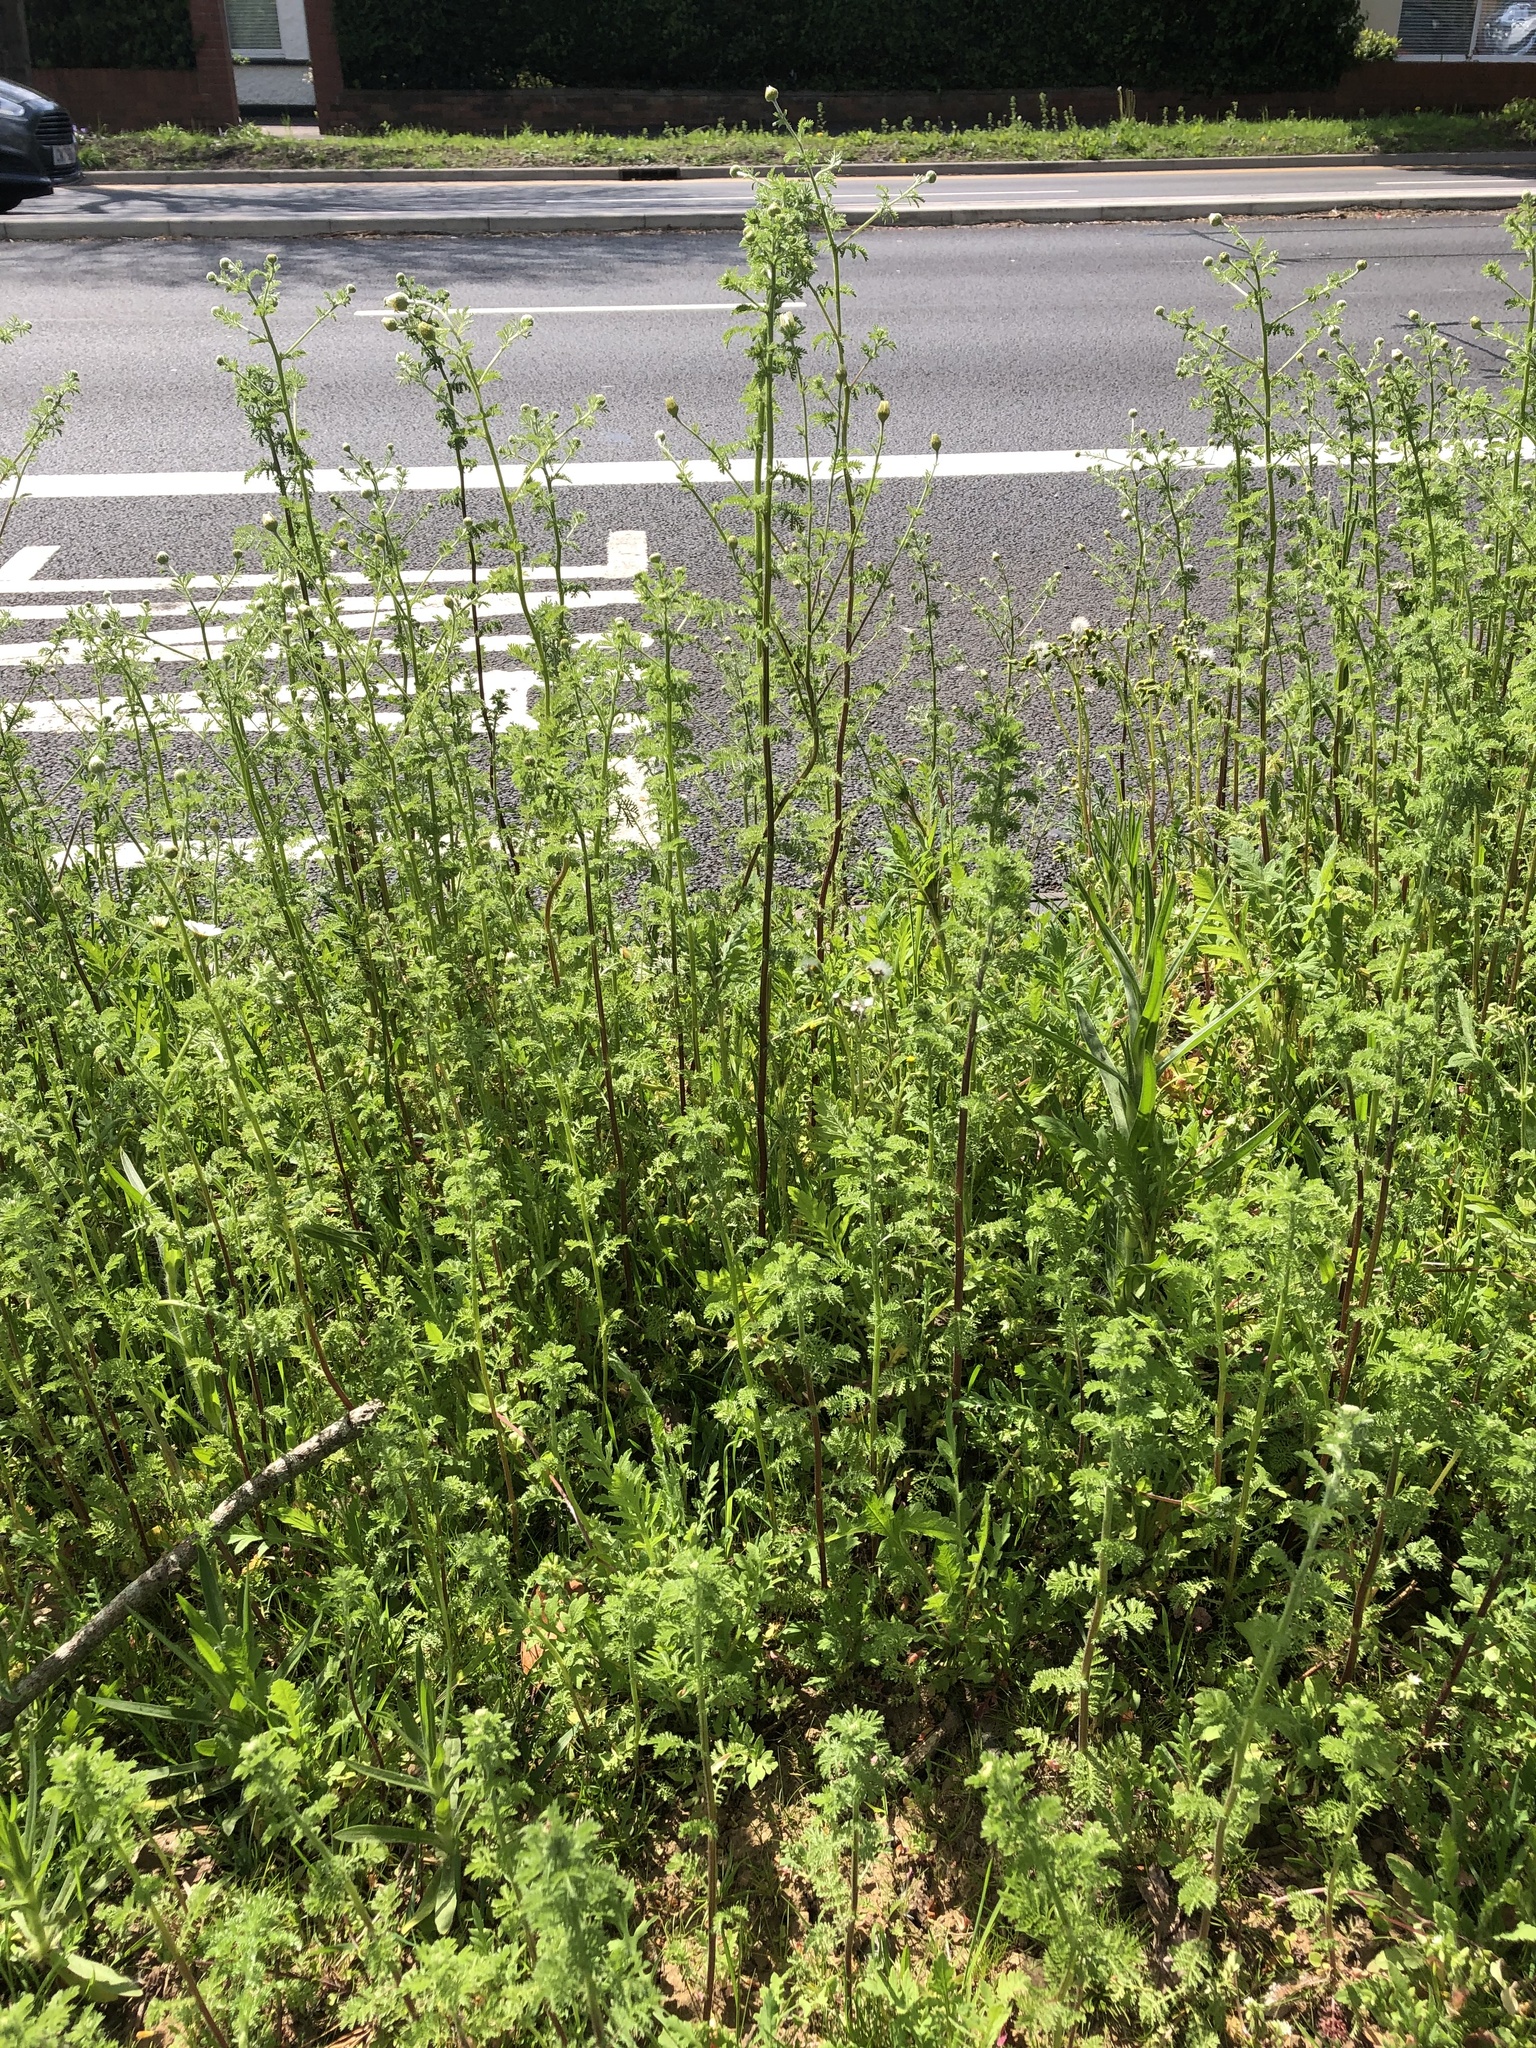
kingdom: Plantae
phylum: Tracheophyta
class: Magnoliopsida
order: Asterales
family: Asteraceae
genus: Cota
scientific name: Cota austriaca
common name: Austrian chamomile
